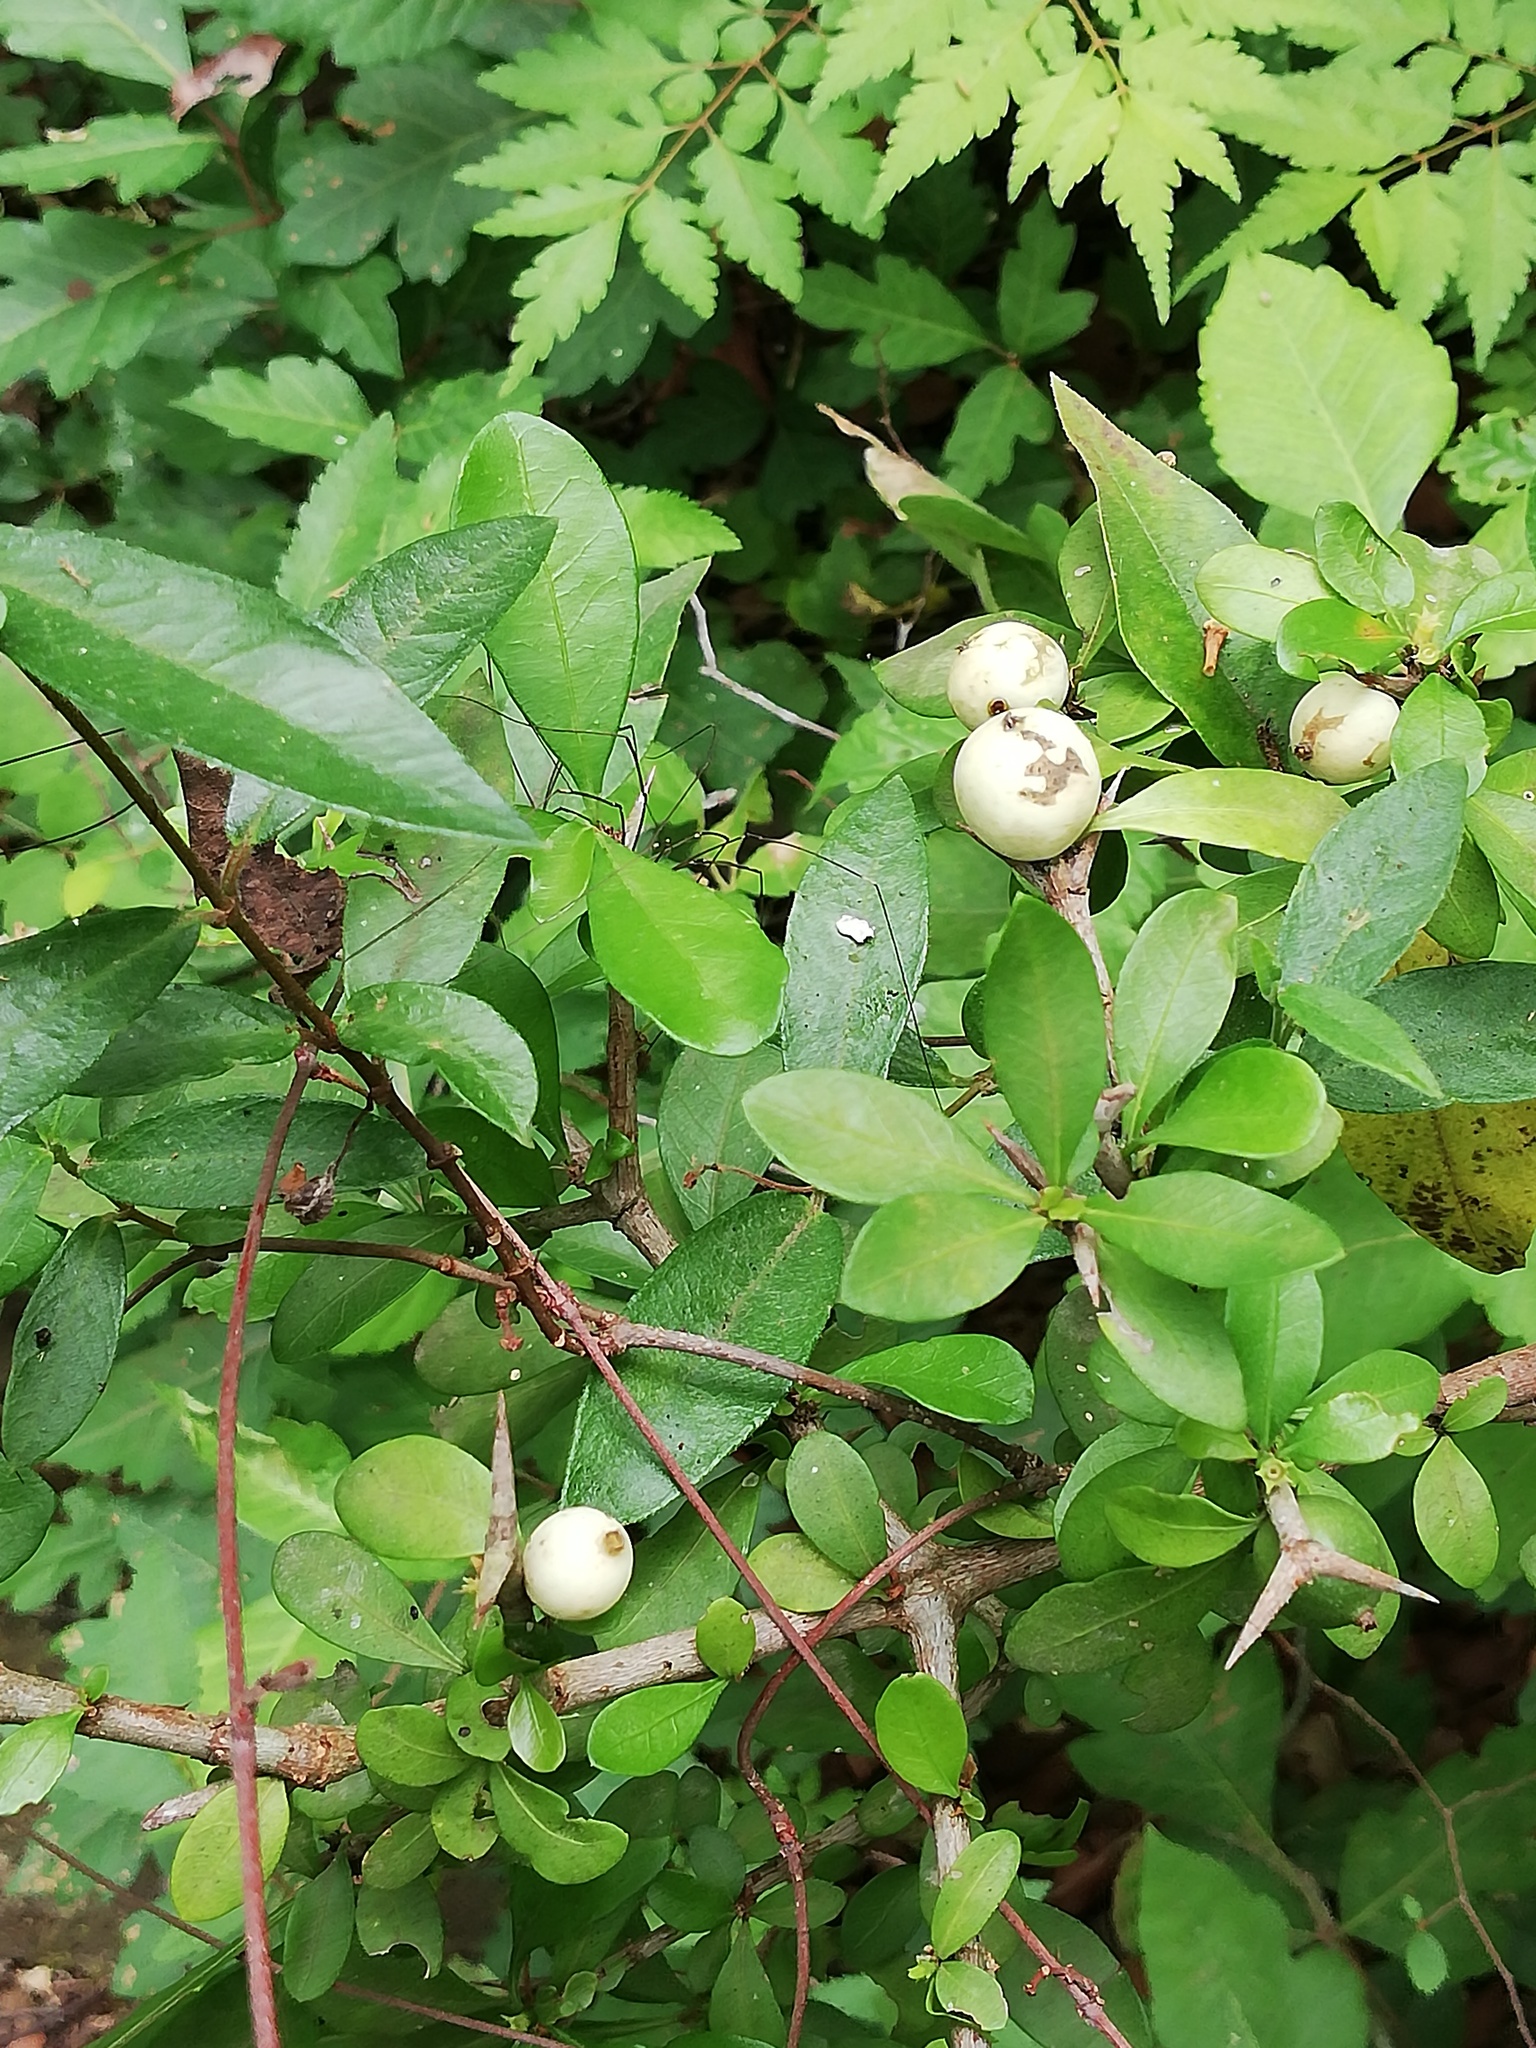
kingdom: Plantae
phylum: Tracheophyta
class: Magnoliopsida
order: Gentianales
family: Rubiaceae
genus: Randia
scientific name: Randia aculeata
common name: Inkberry
